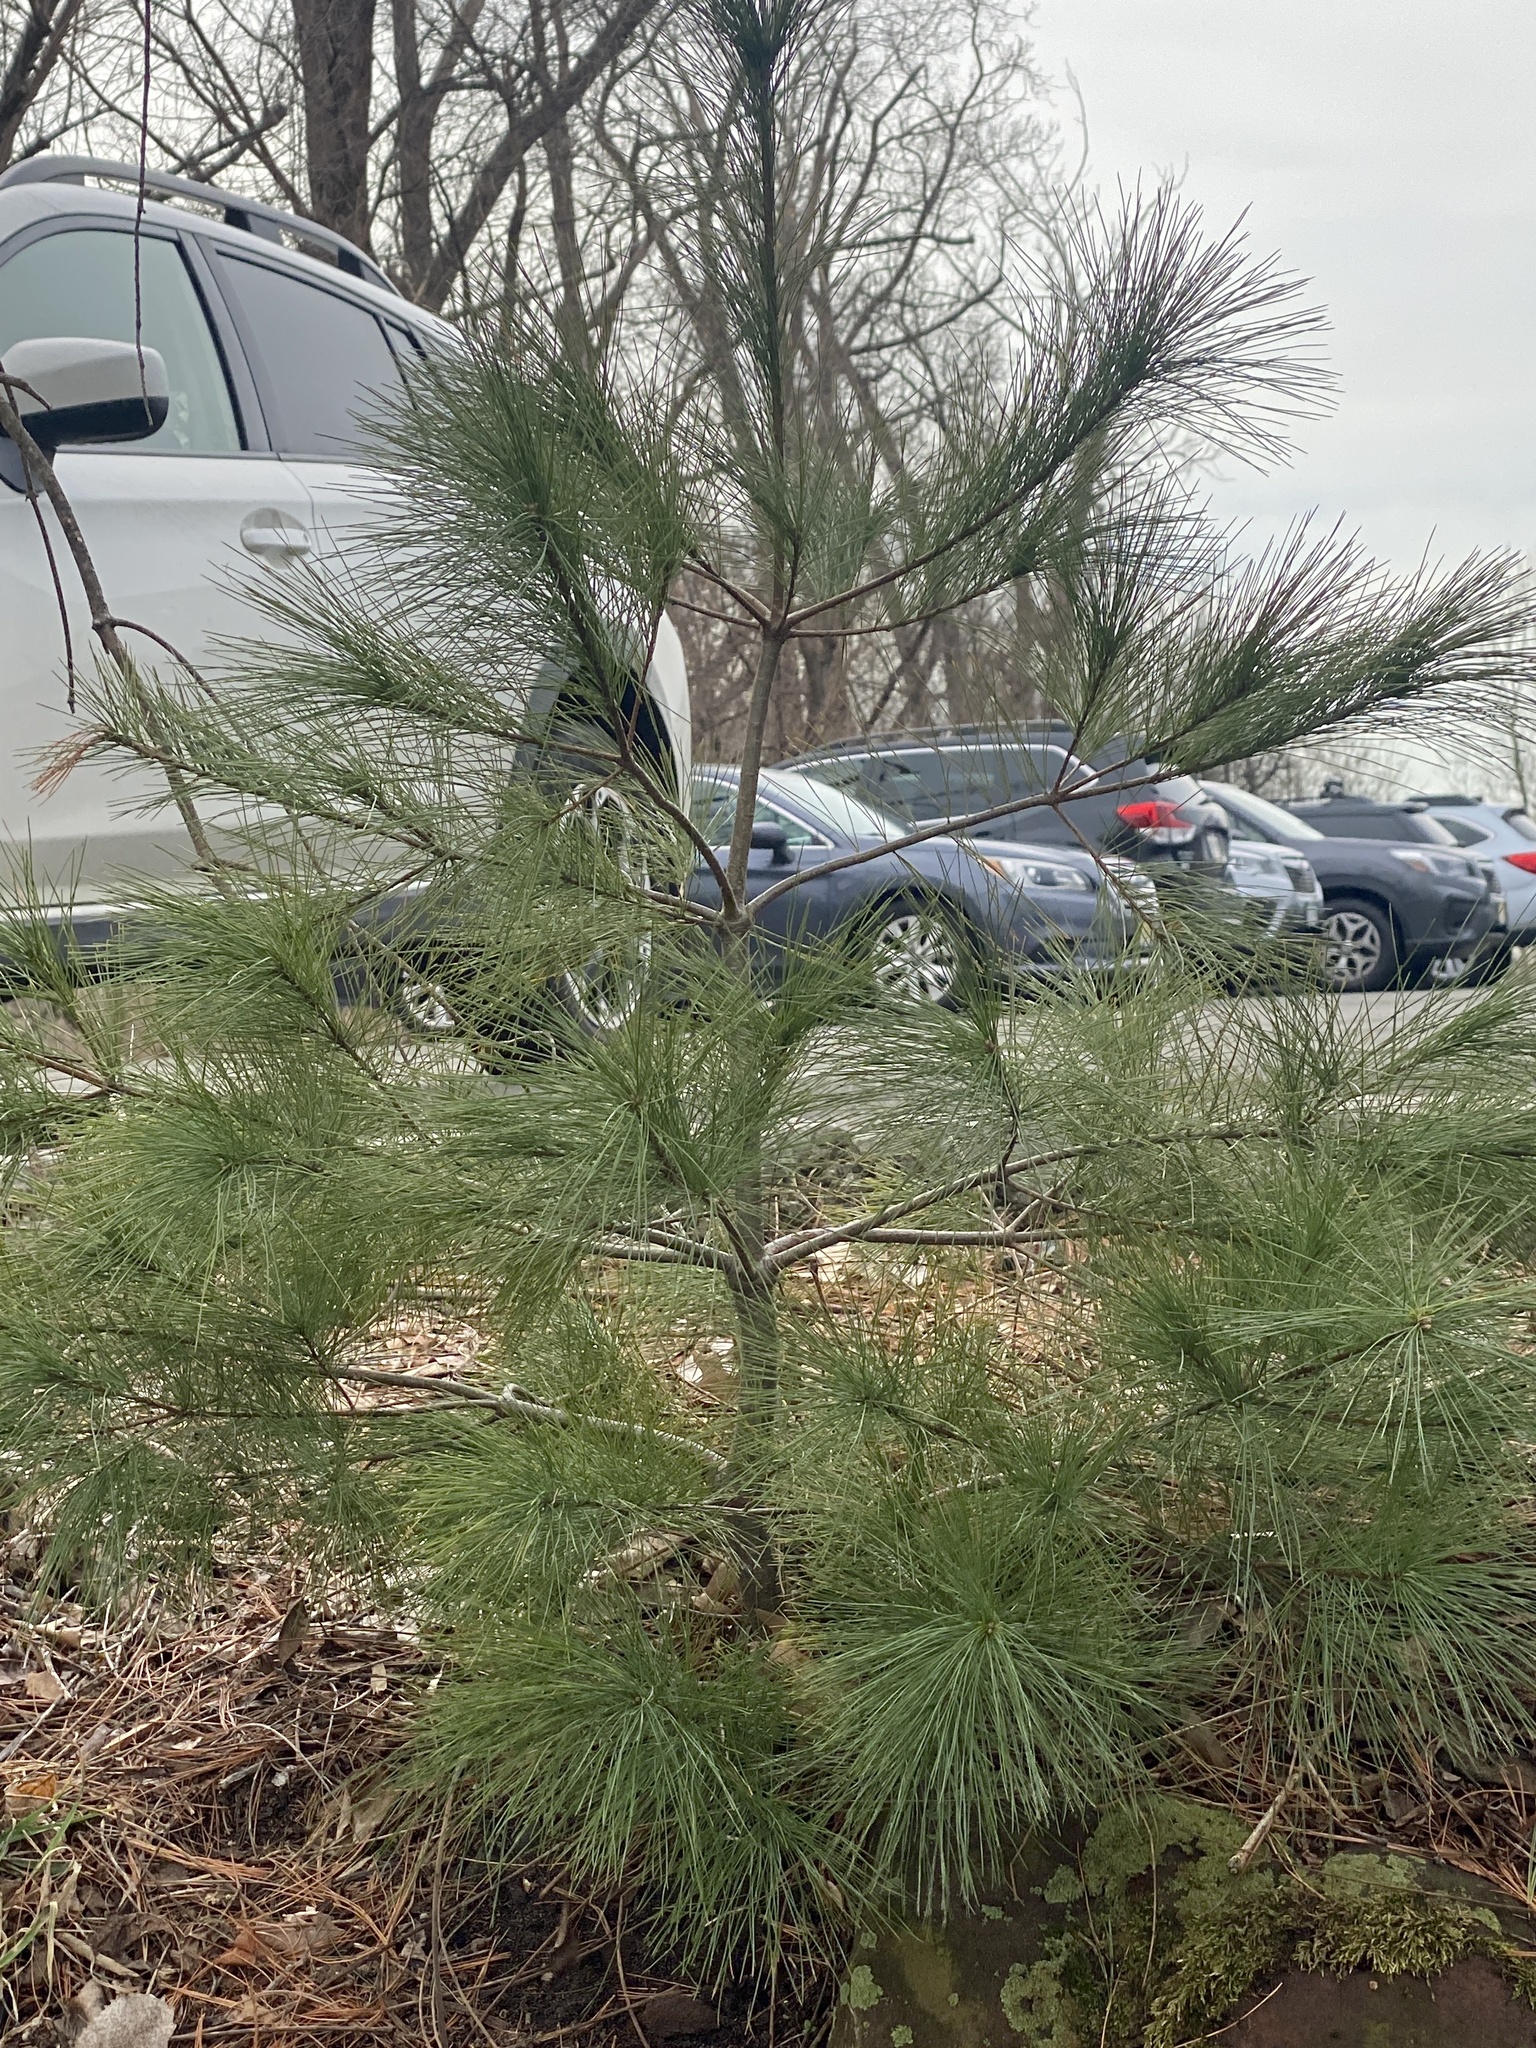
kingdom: Plantae
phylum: Tracheophyta
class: Pinopsida
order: Pinales
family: Pinaceae
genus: Pinus
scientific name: Pinus strobus
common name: Weymouth pine
